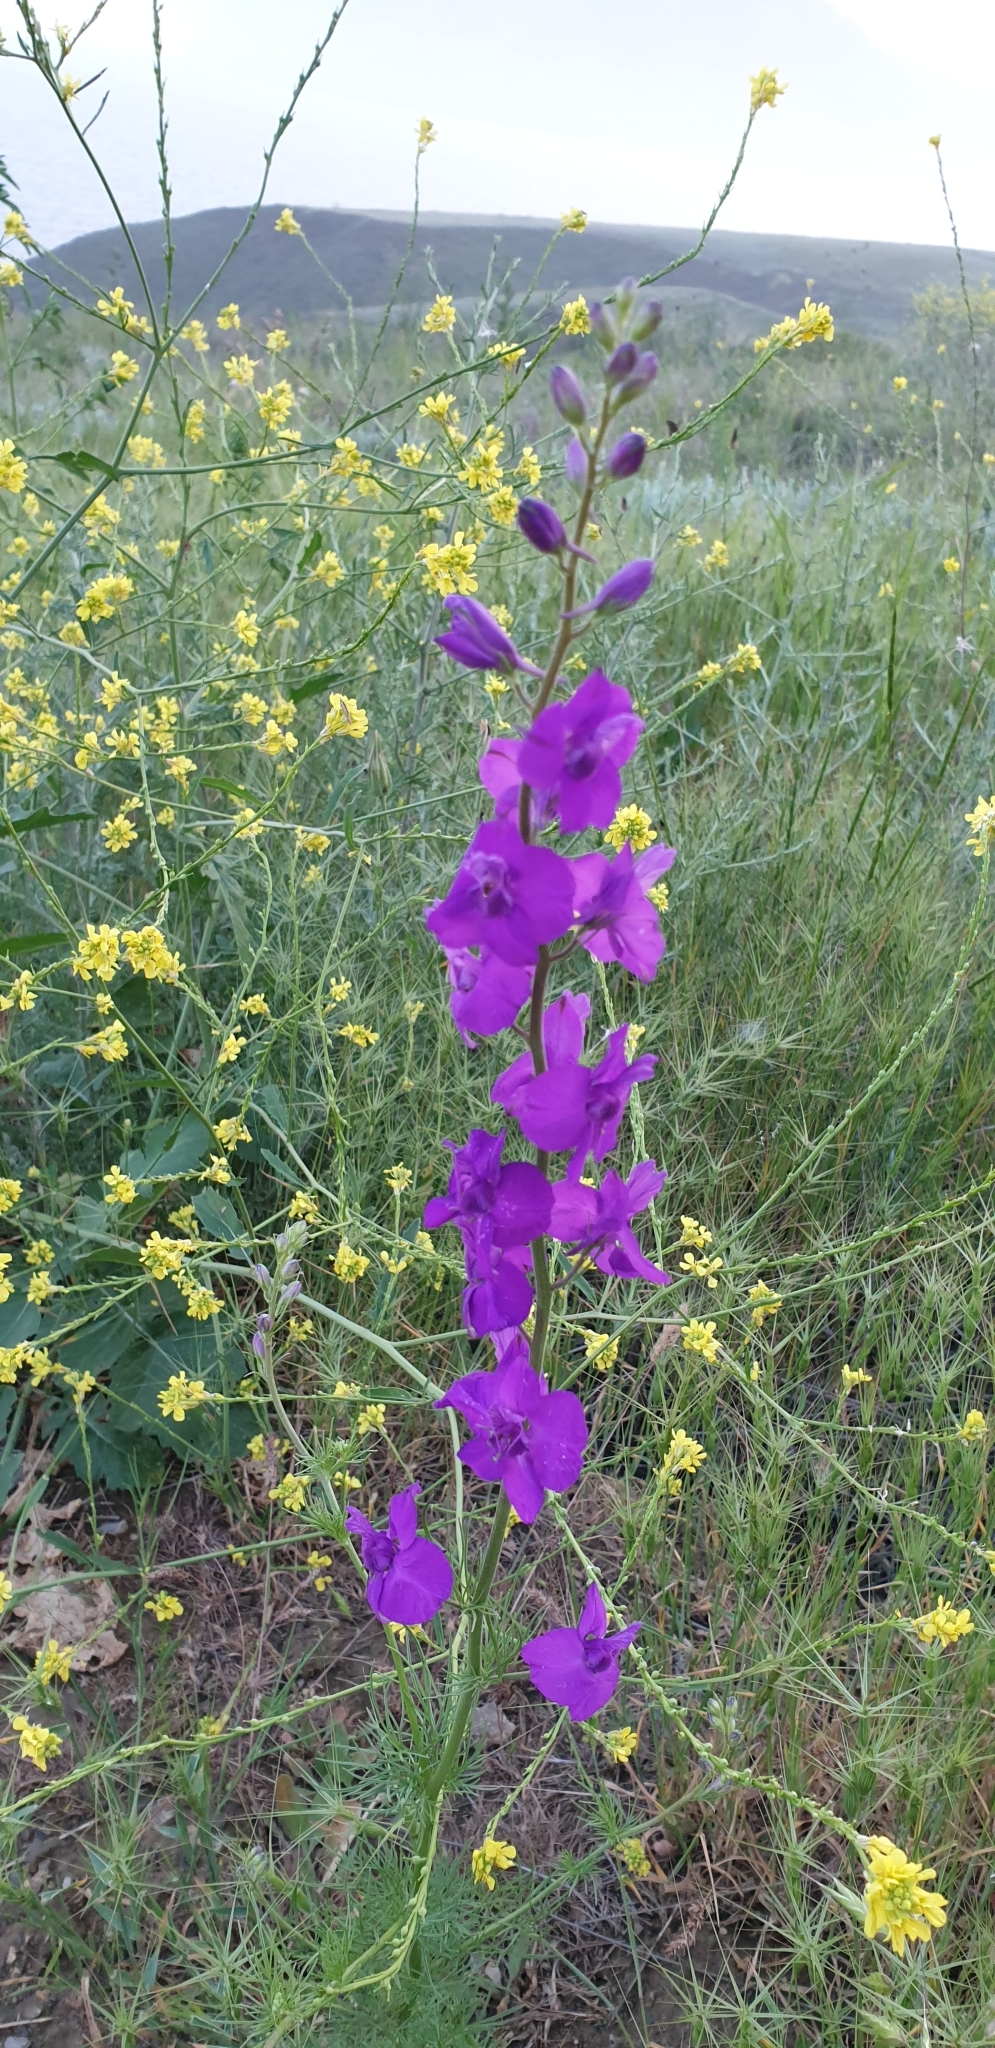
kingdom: Plantae
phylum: Tracheophyta
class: Magnoliopsida
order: Ranunculales
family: Ranunculaceae
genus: Delphinium
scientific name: Delphinium ajacis
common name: Doubtful knight's-spur
